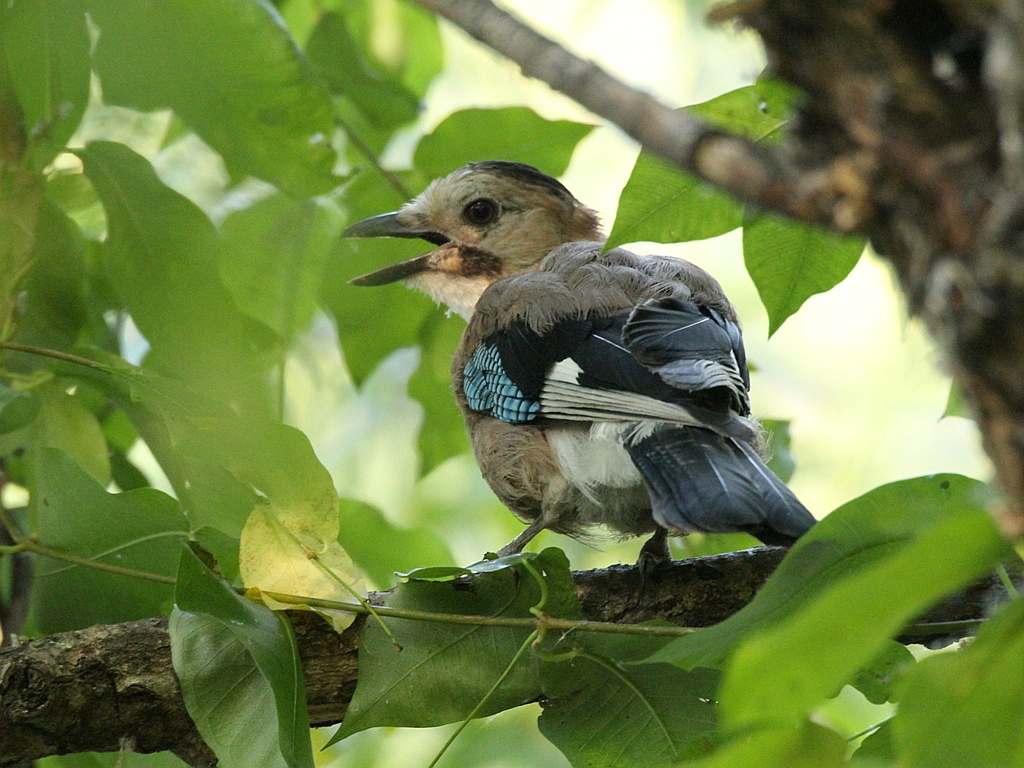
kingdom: Animalia
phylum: Chordata
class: Aves
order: Passeriformes
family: Corvidae
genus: Garrulus
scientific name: Garrulus glandarius
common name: Eurasian jay
